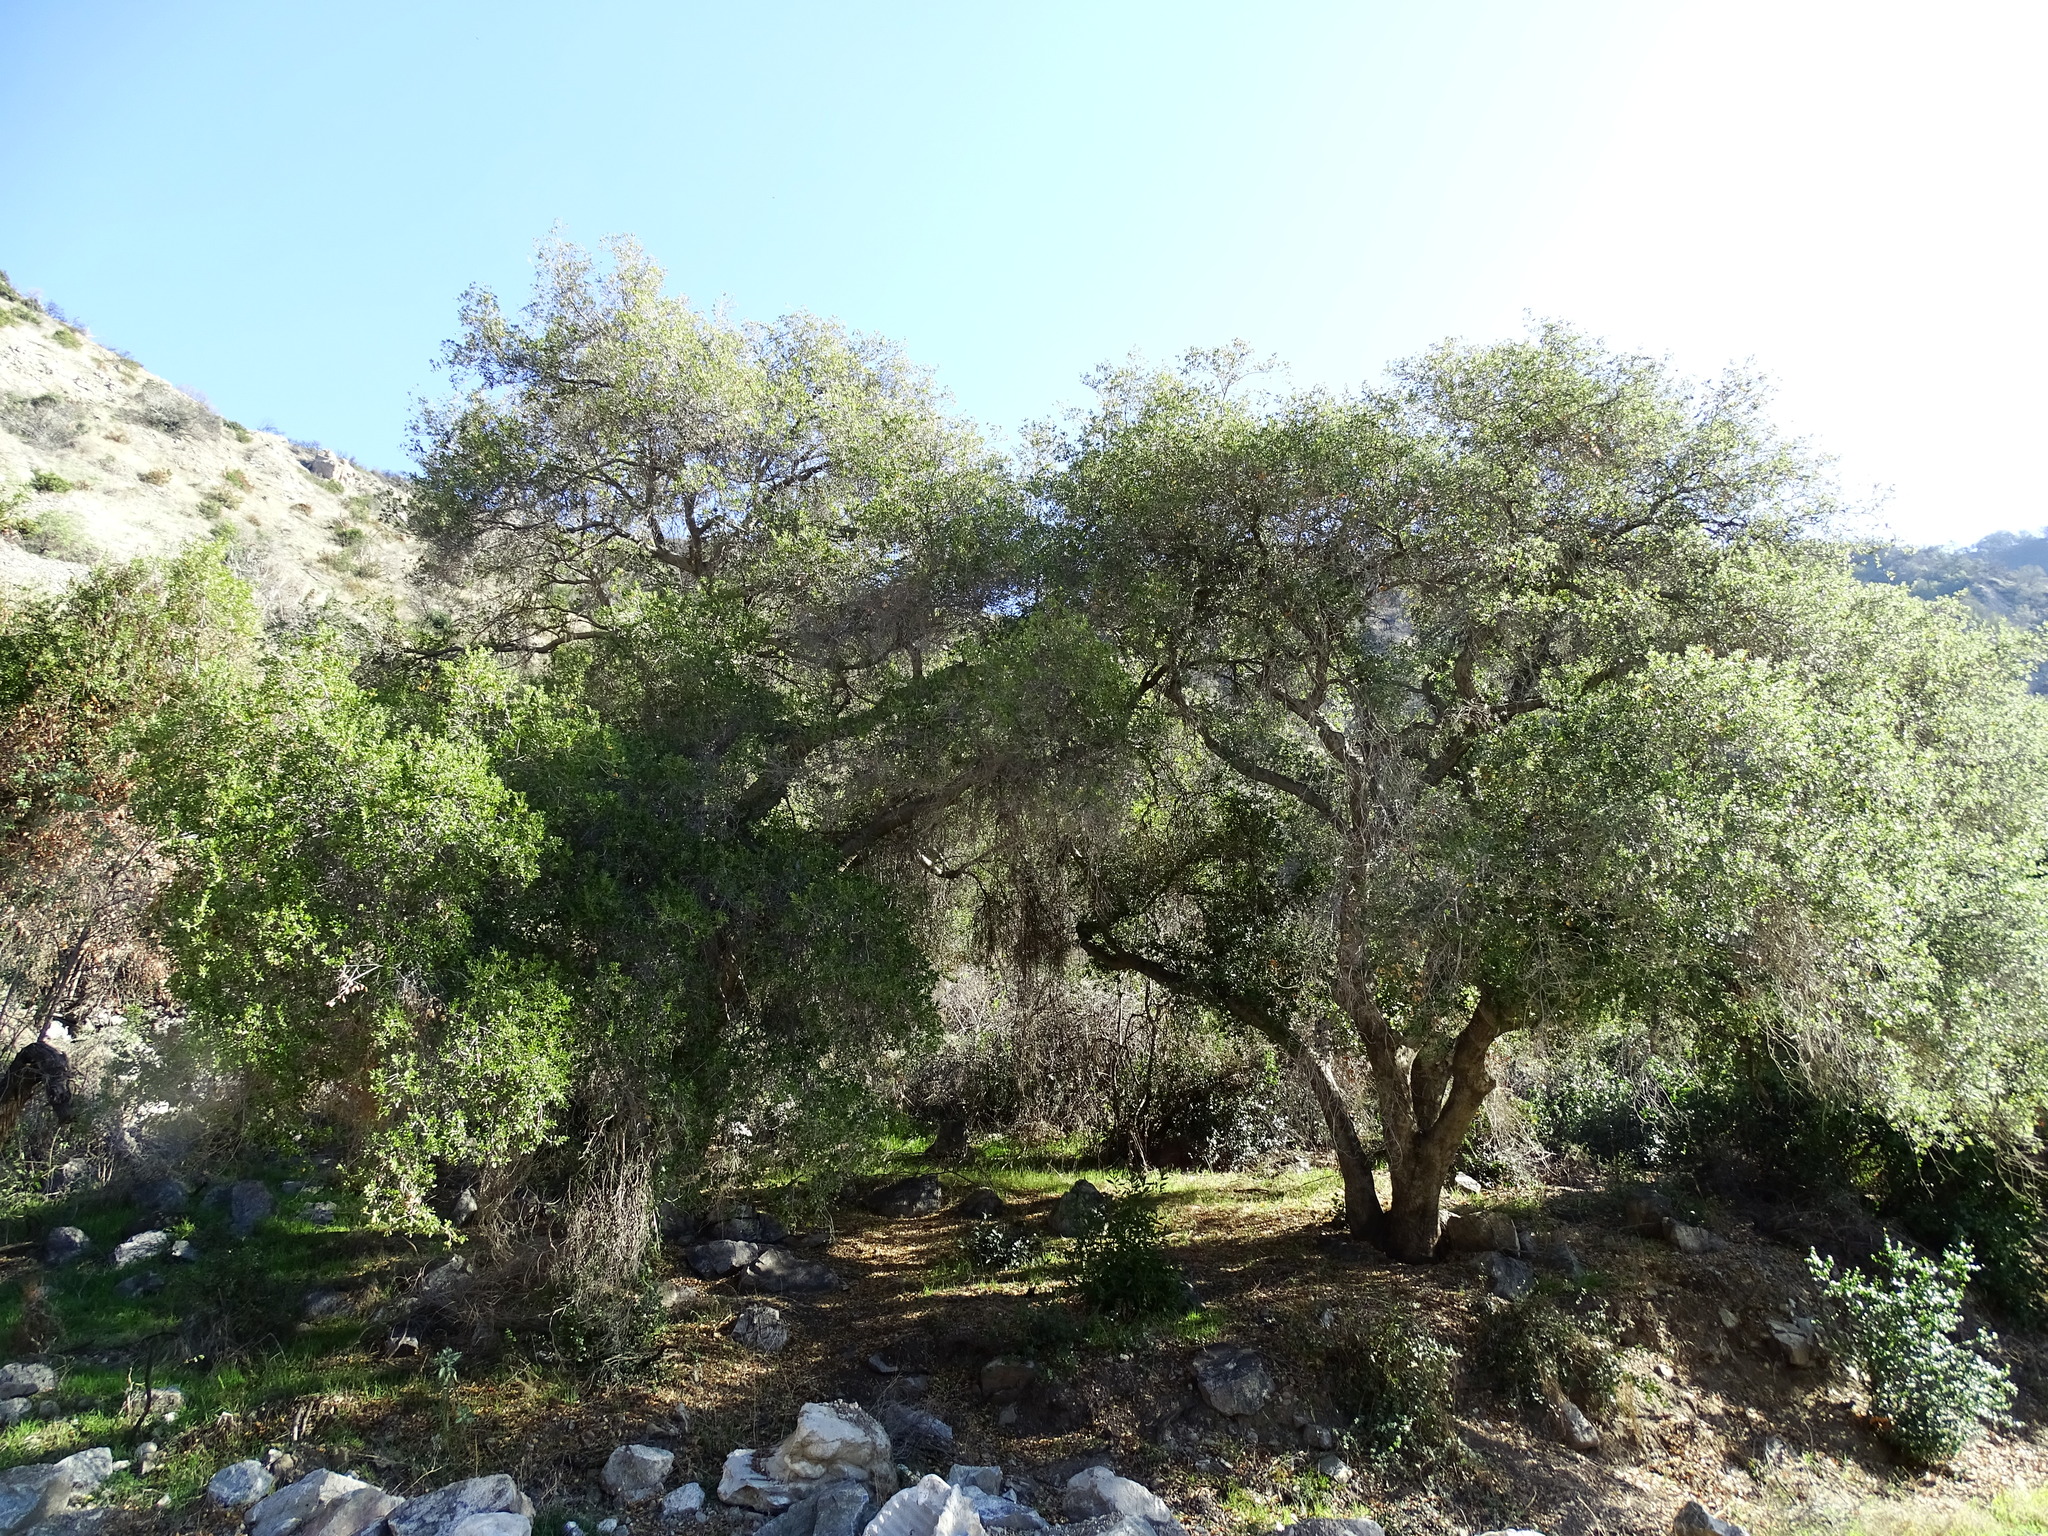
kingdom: Plantae
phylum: Tracheophyta
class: Magnoliopsida
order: Fagales
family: Fagaceae
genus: Quercus
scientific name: Quercus agrifolia
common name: California live oak
